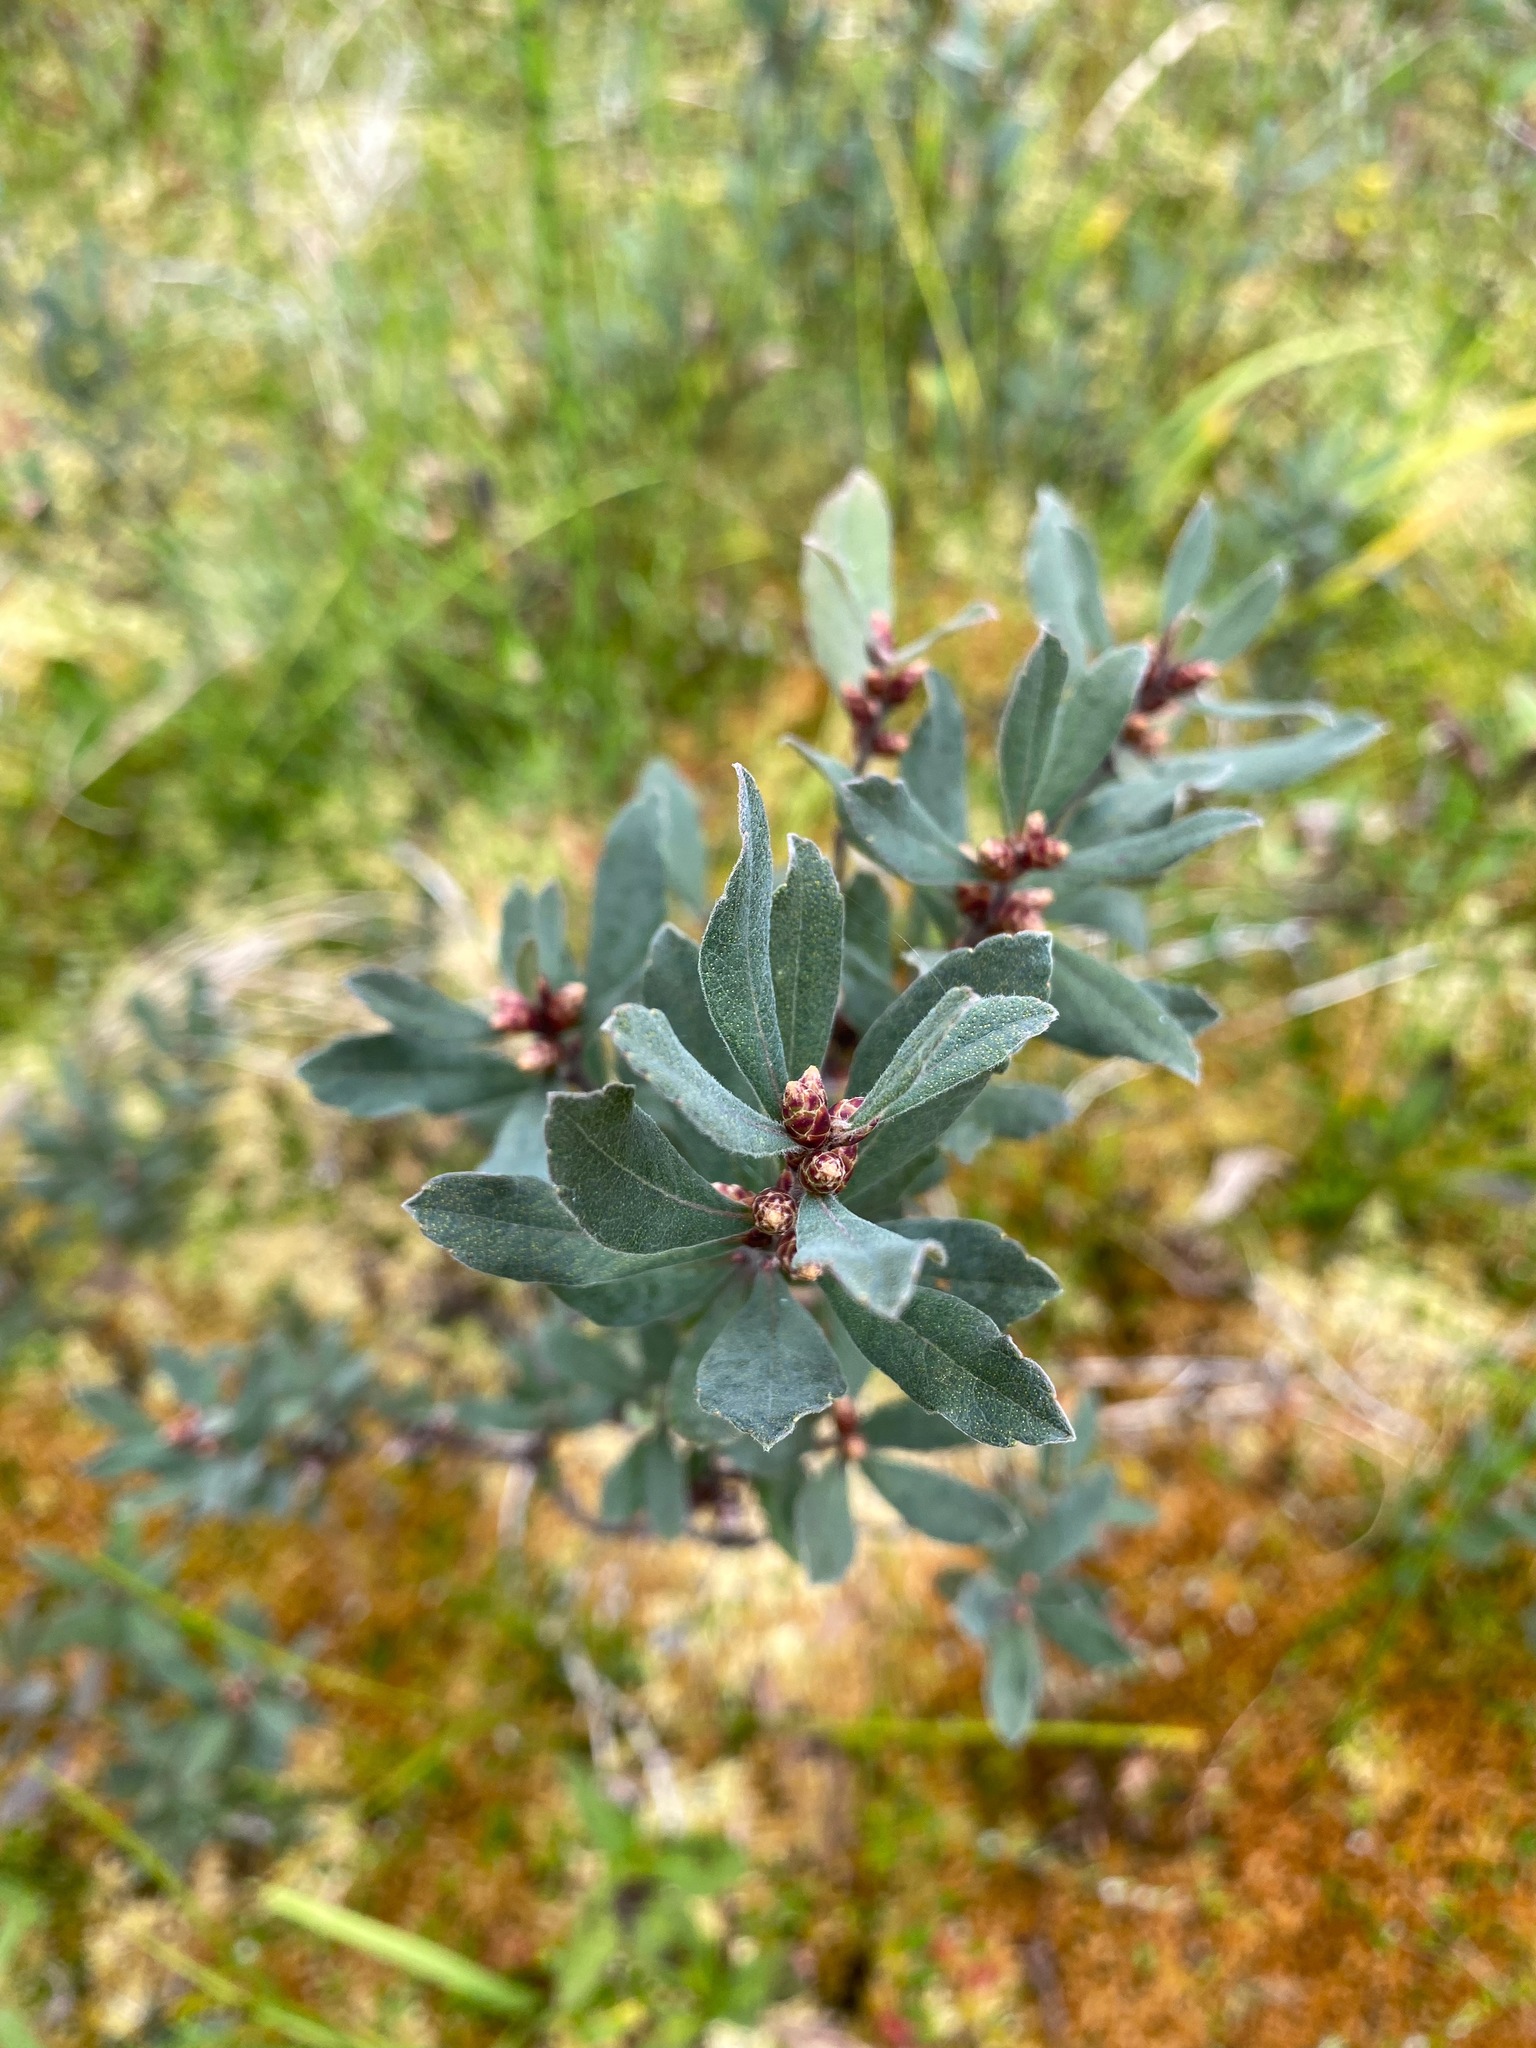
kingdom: Plantae
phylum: Tracheophyta
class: Magnoliopsida
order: Fagales
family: Myricaceae
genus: Myrica
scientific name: Myrica gale
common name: Sweet gale
